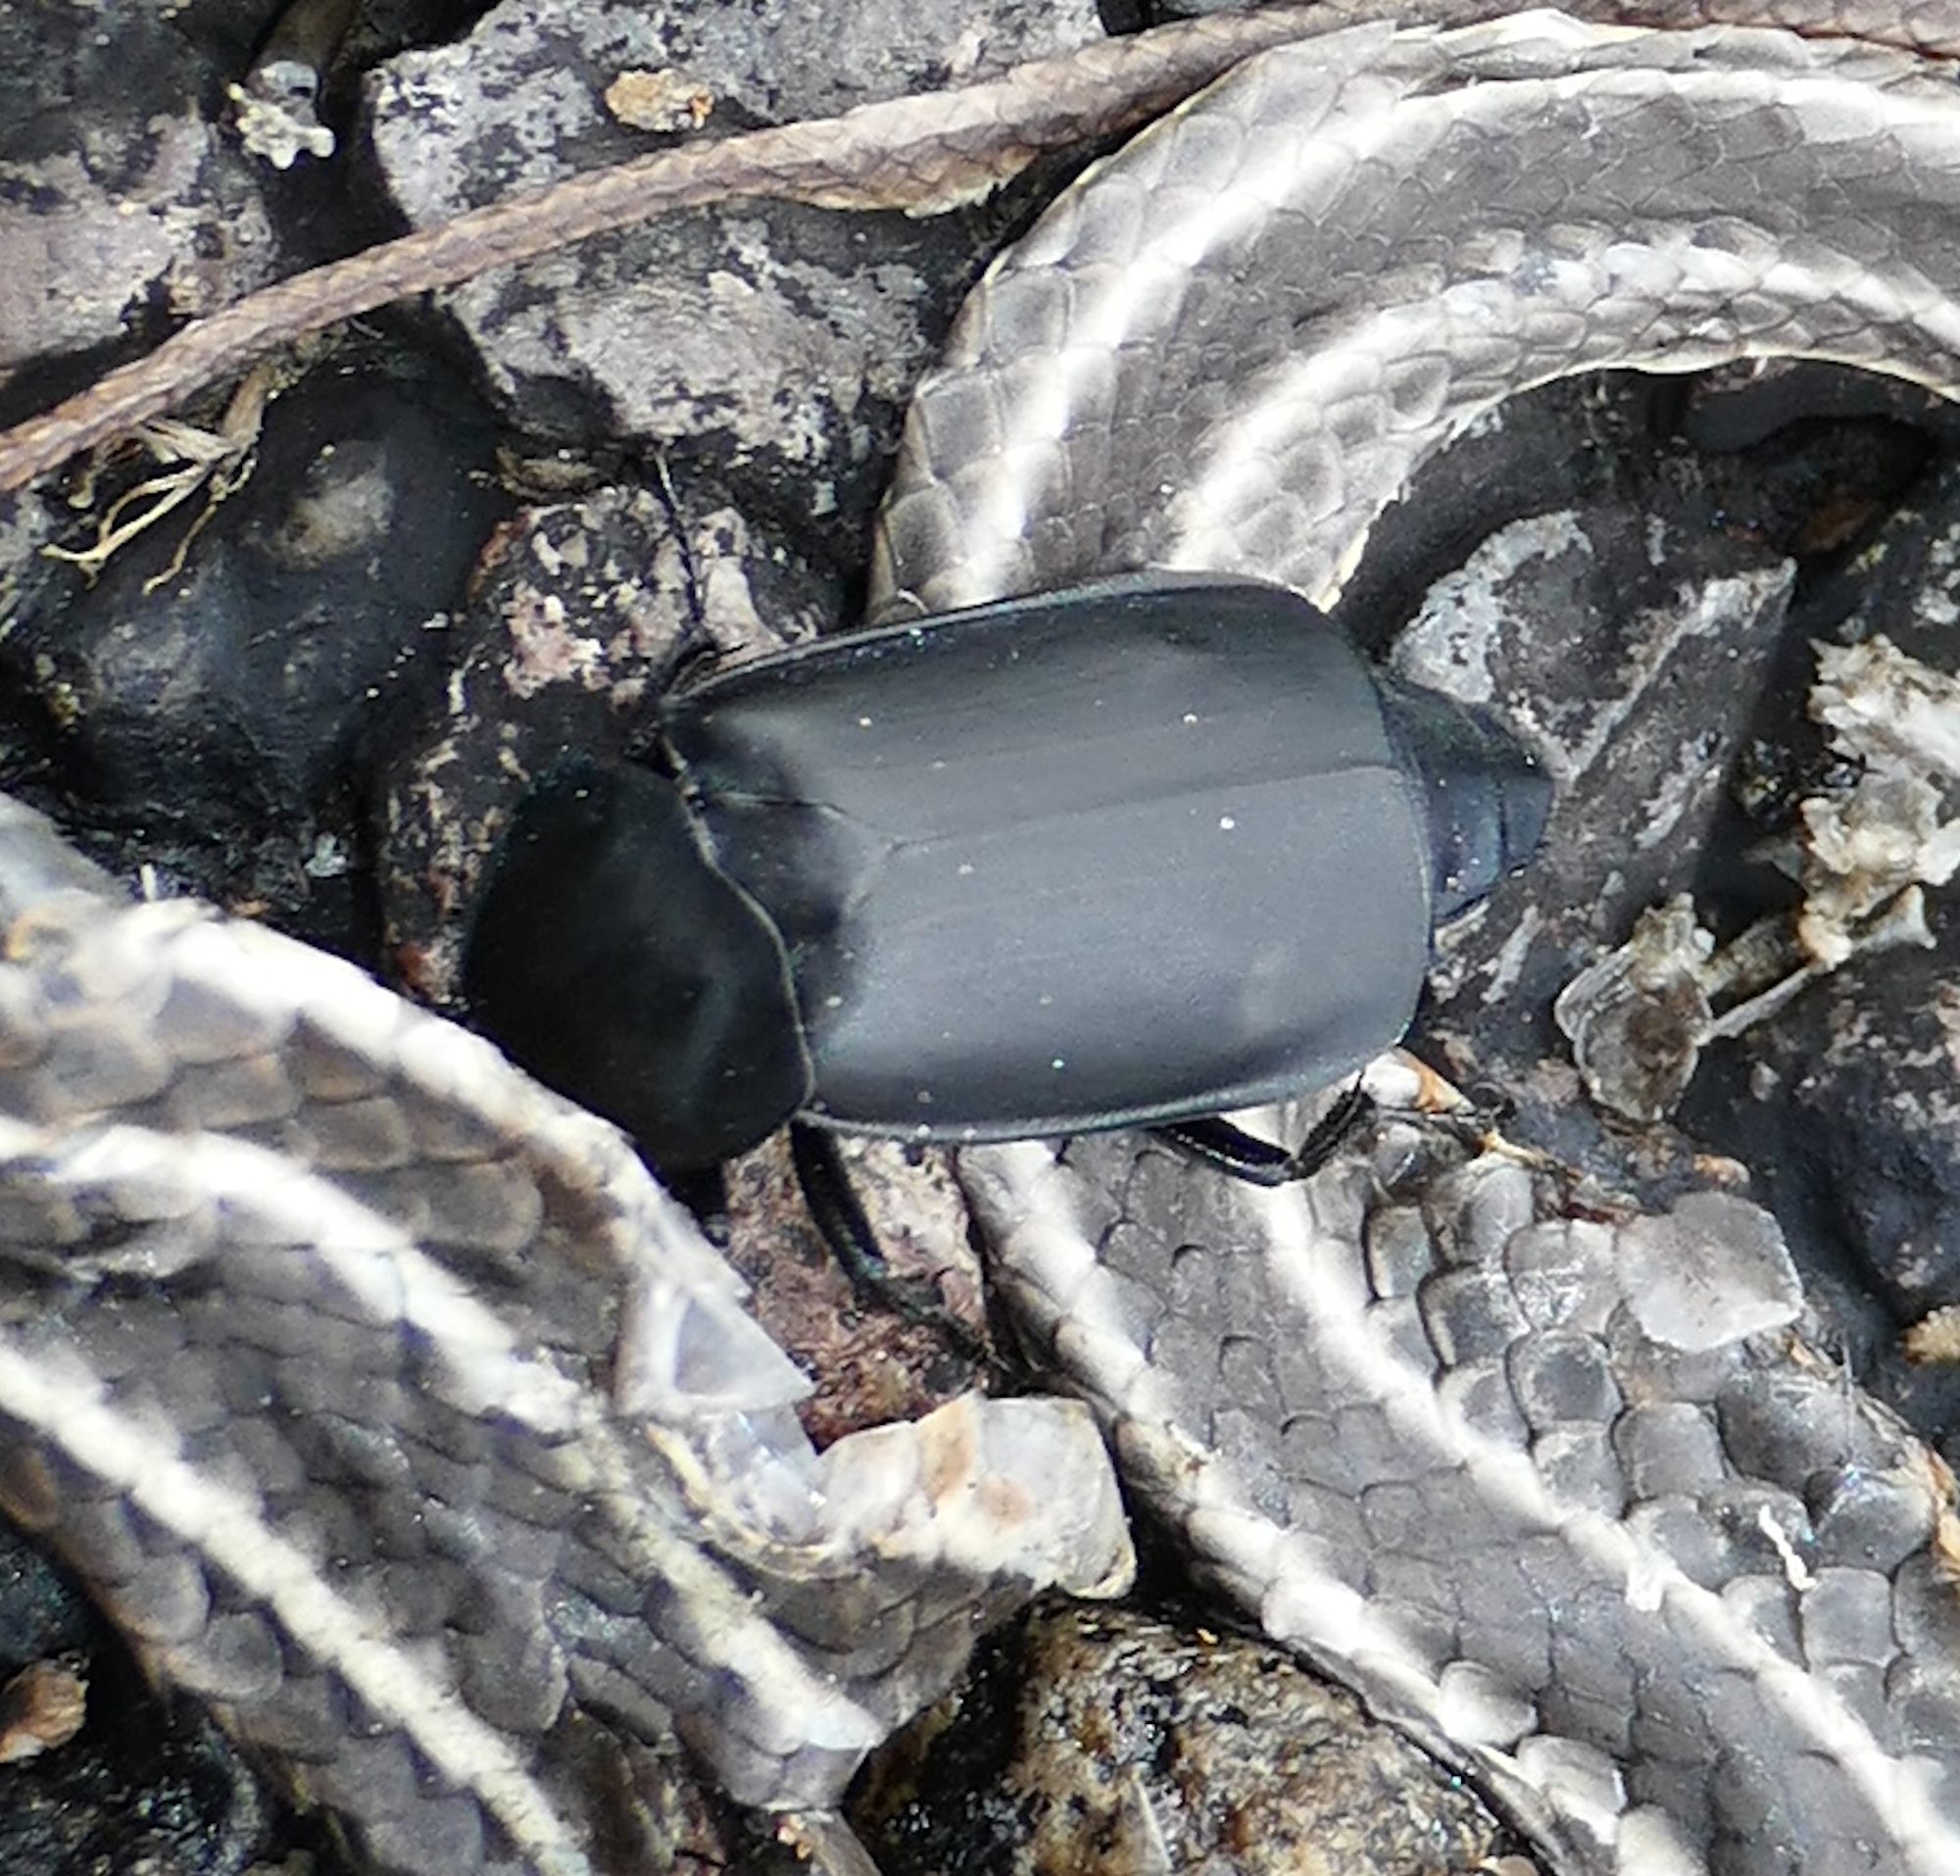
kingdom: Animalia
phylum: Arthropoda
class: Insecta
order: Coleoptera
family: Staphylinidae
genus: Thanatophilus
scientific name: Thanatophilus truncatus
